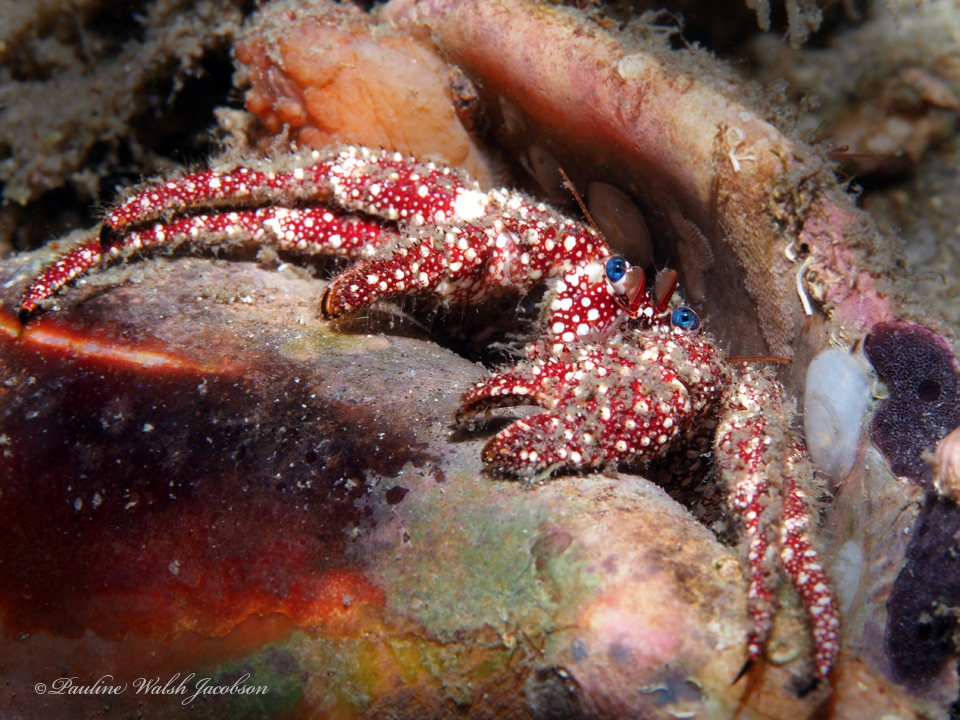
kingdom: Animalia
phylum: Arthropoda
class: Malacostraca
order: Decapoda
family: Diogenidae
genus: Paguristes
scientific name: Paguristes puncticeps
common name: White speckled hermit
